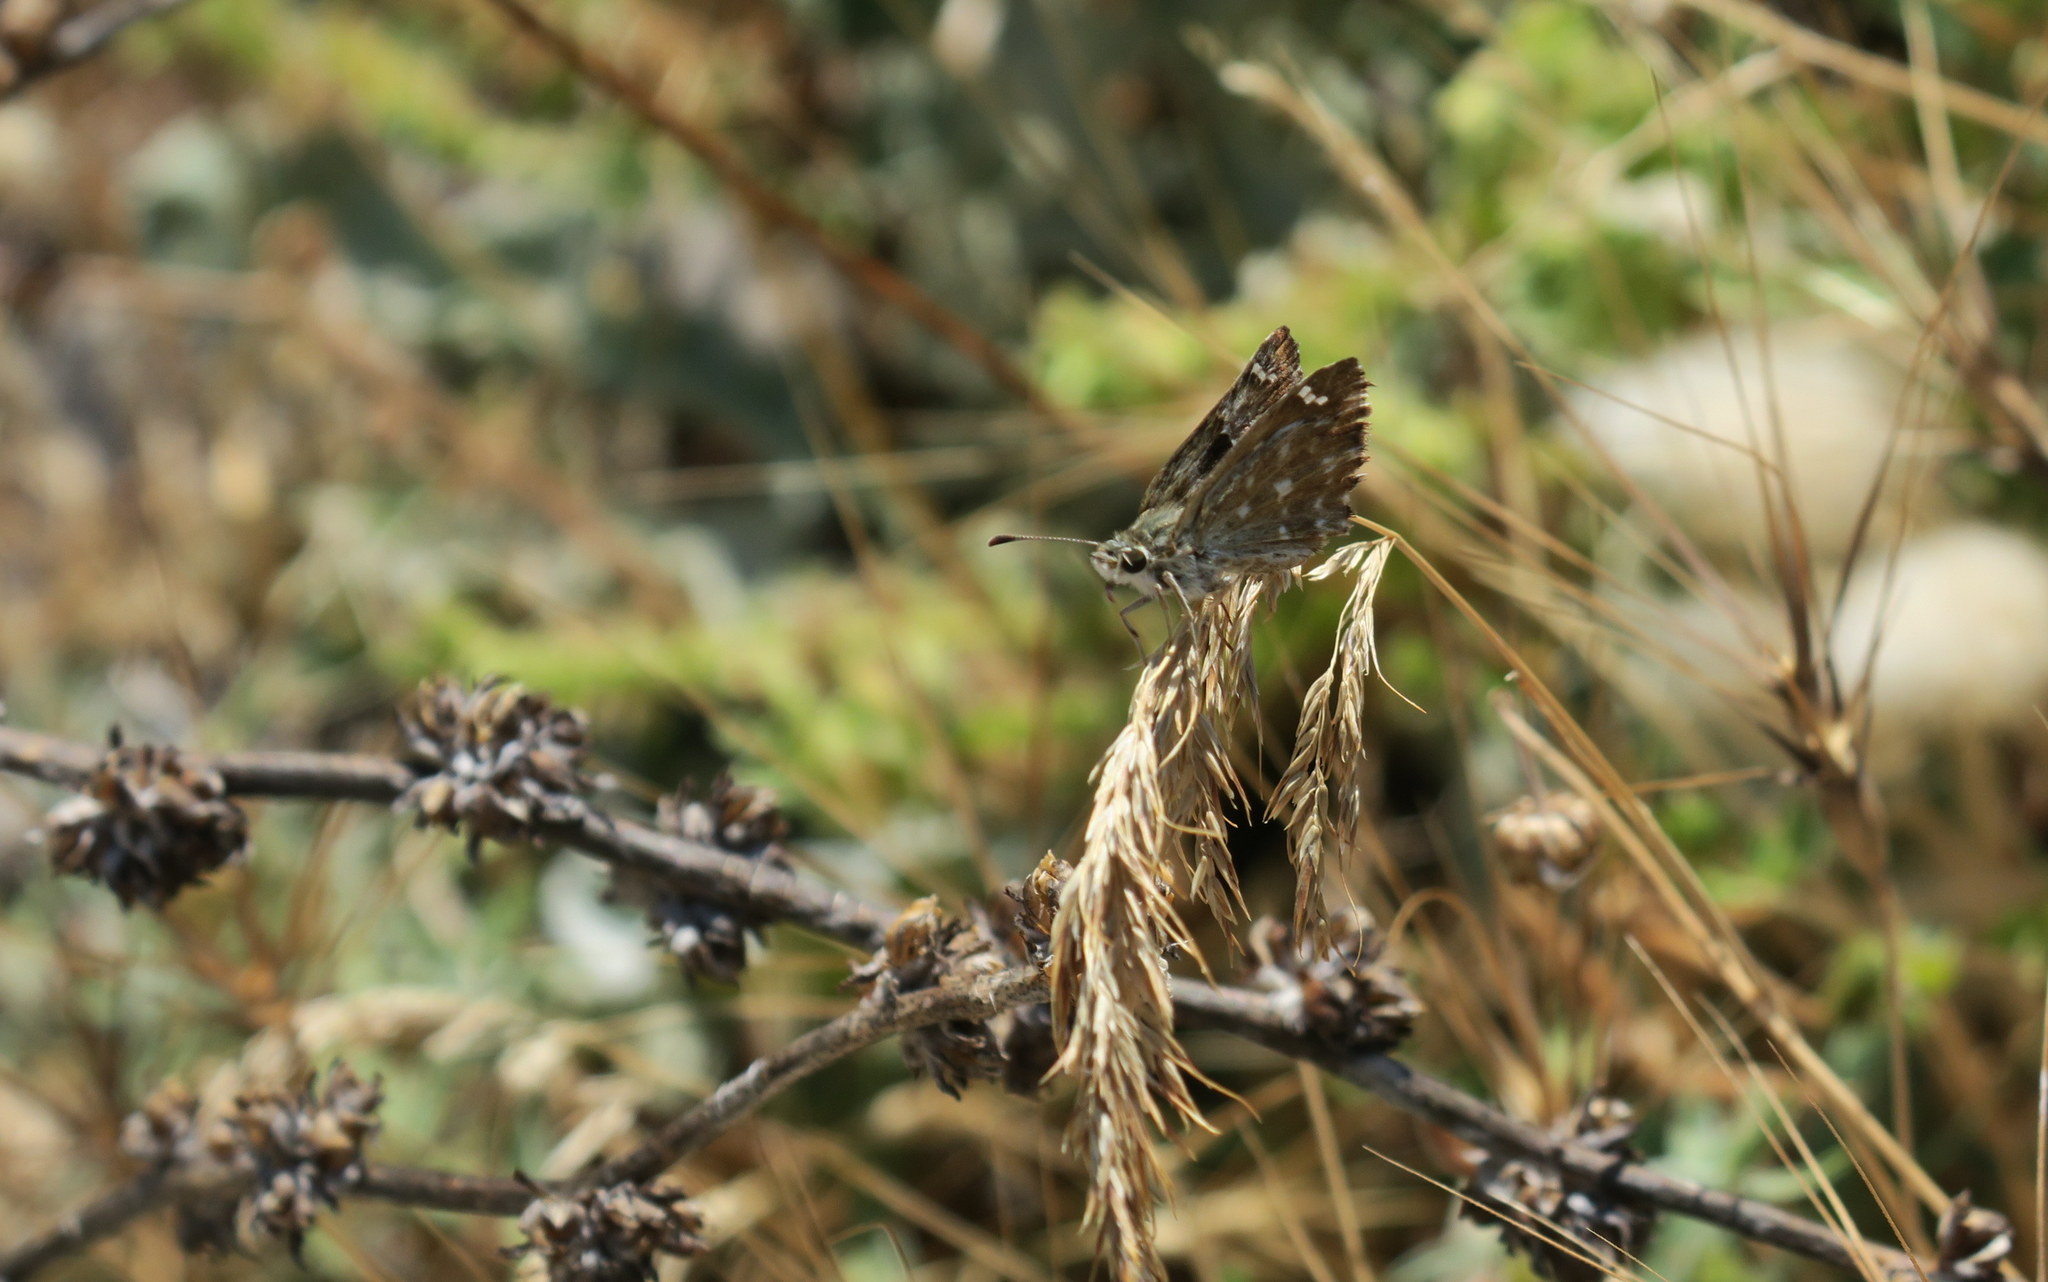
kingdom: Animalia
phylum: Arthropoda
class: Insecta
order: Lepidoptera
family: Hesperiidae
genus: Carcharodus
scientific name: Carcharodus alceae
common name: Mallow skipper
